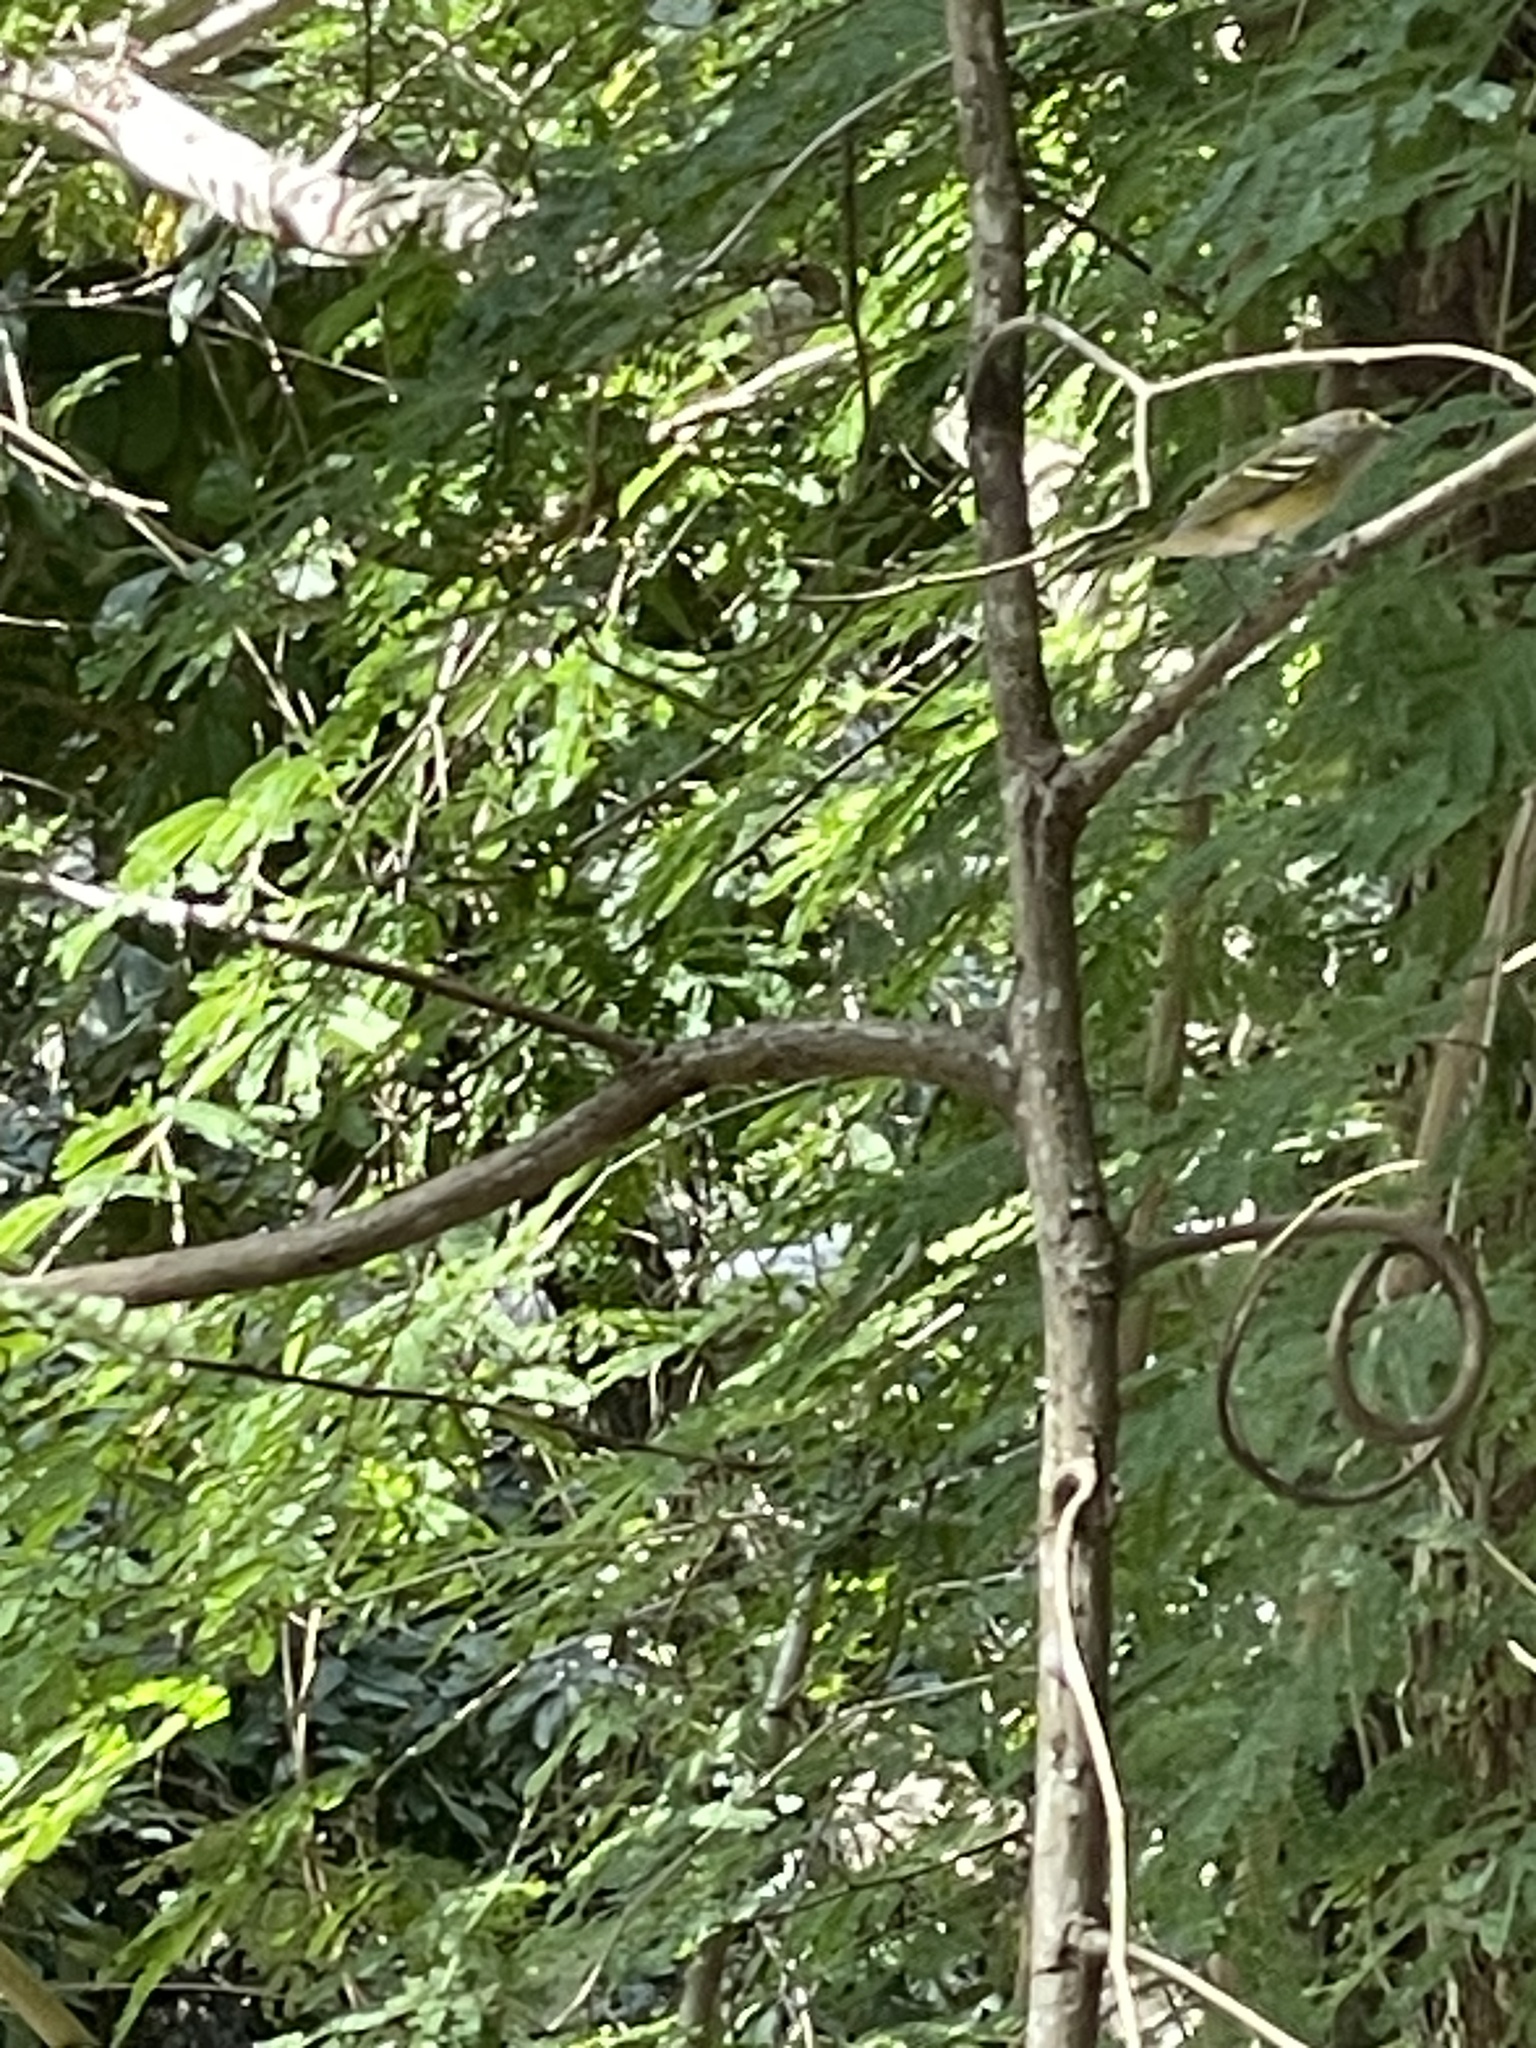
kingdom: Animalia
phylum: Chordata
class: Aves
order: Passeriformes
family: Vireonidae
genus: Vireo
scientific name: Vireo griseus
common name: White-eyed vireo
